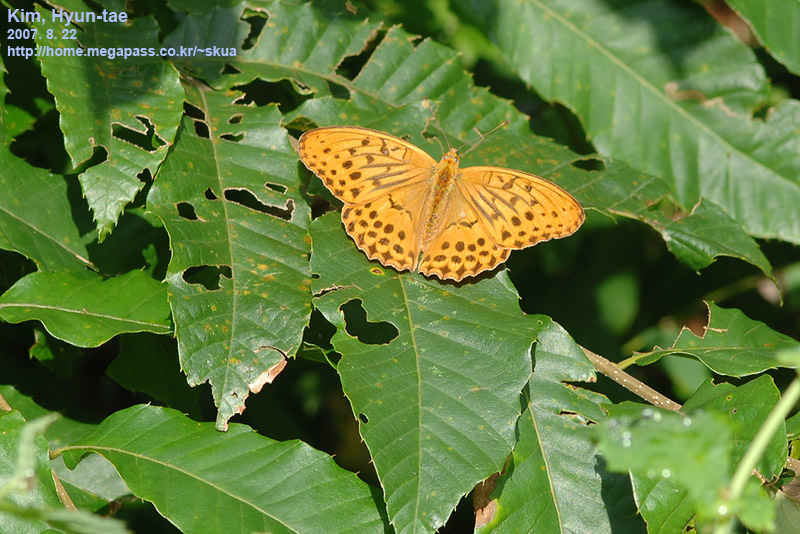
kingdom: Animalia
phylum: Arthropoda
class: Insecta
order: Lepidoptera
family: Nymphalidae
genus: Damora
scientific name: Damora sagana
